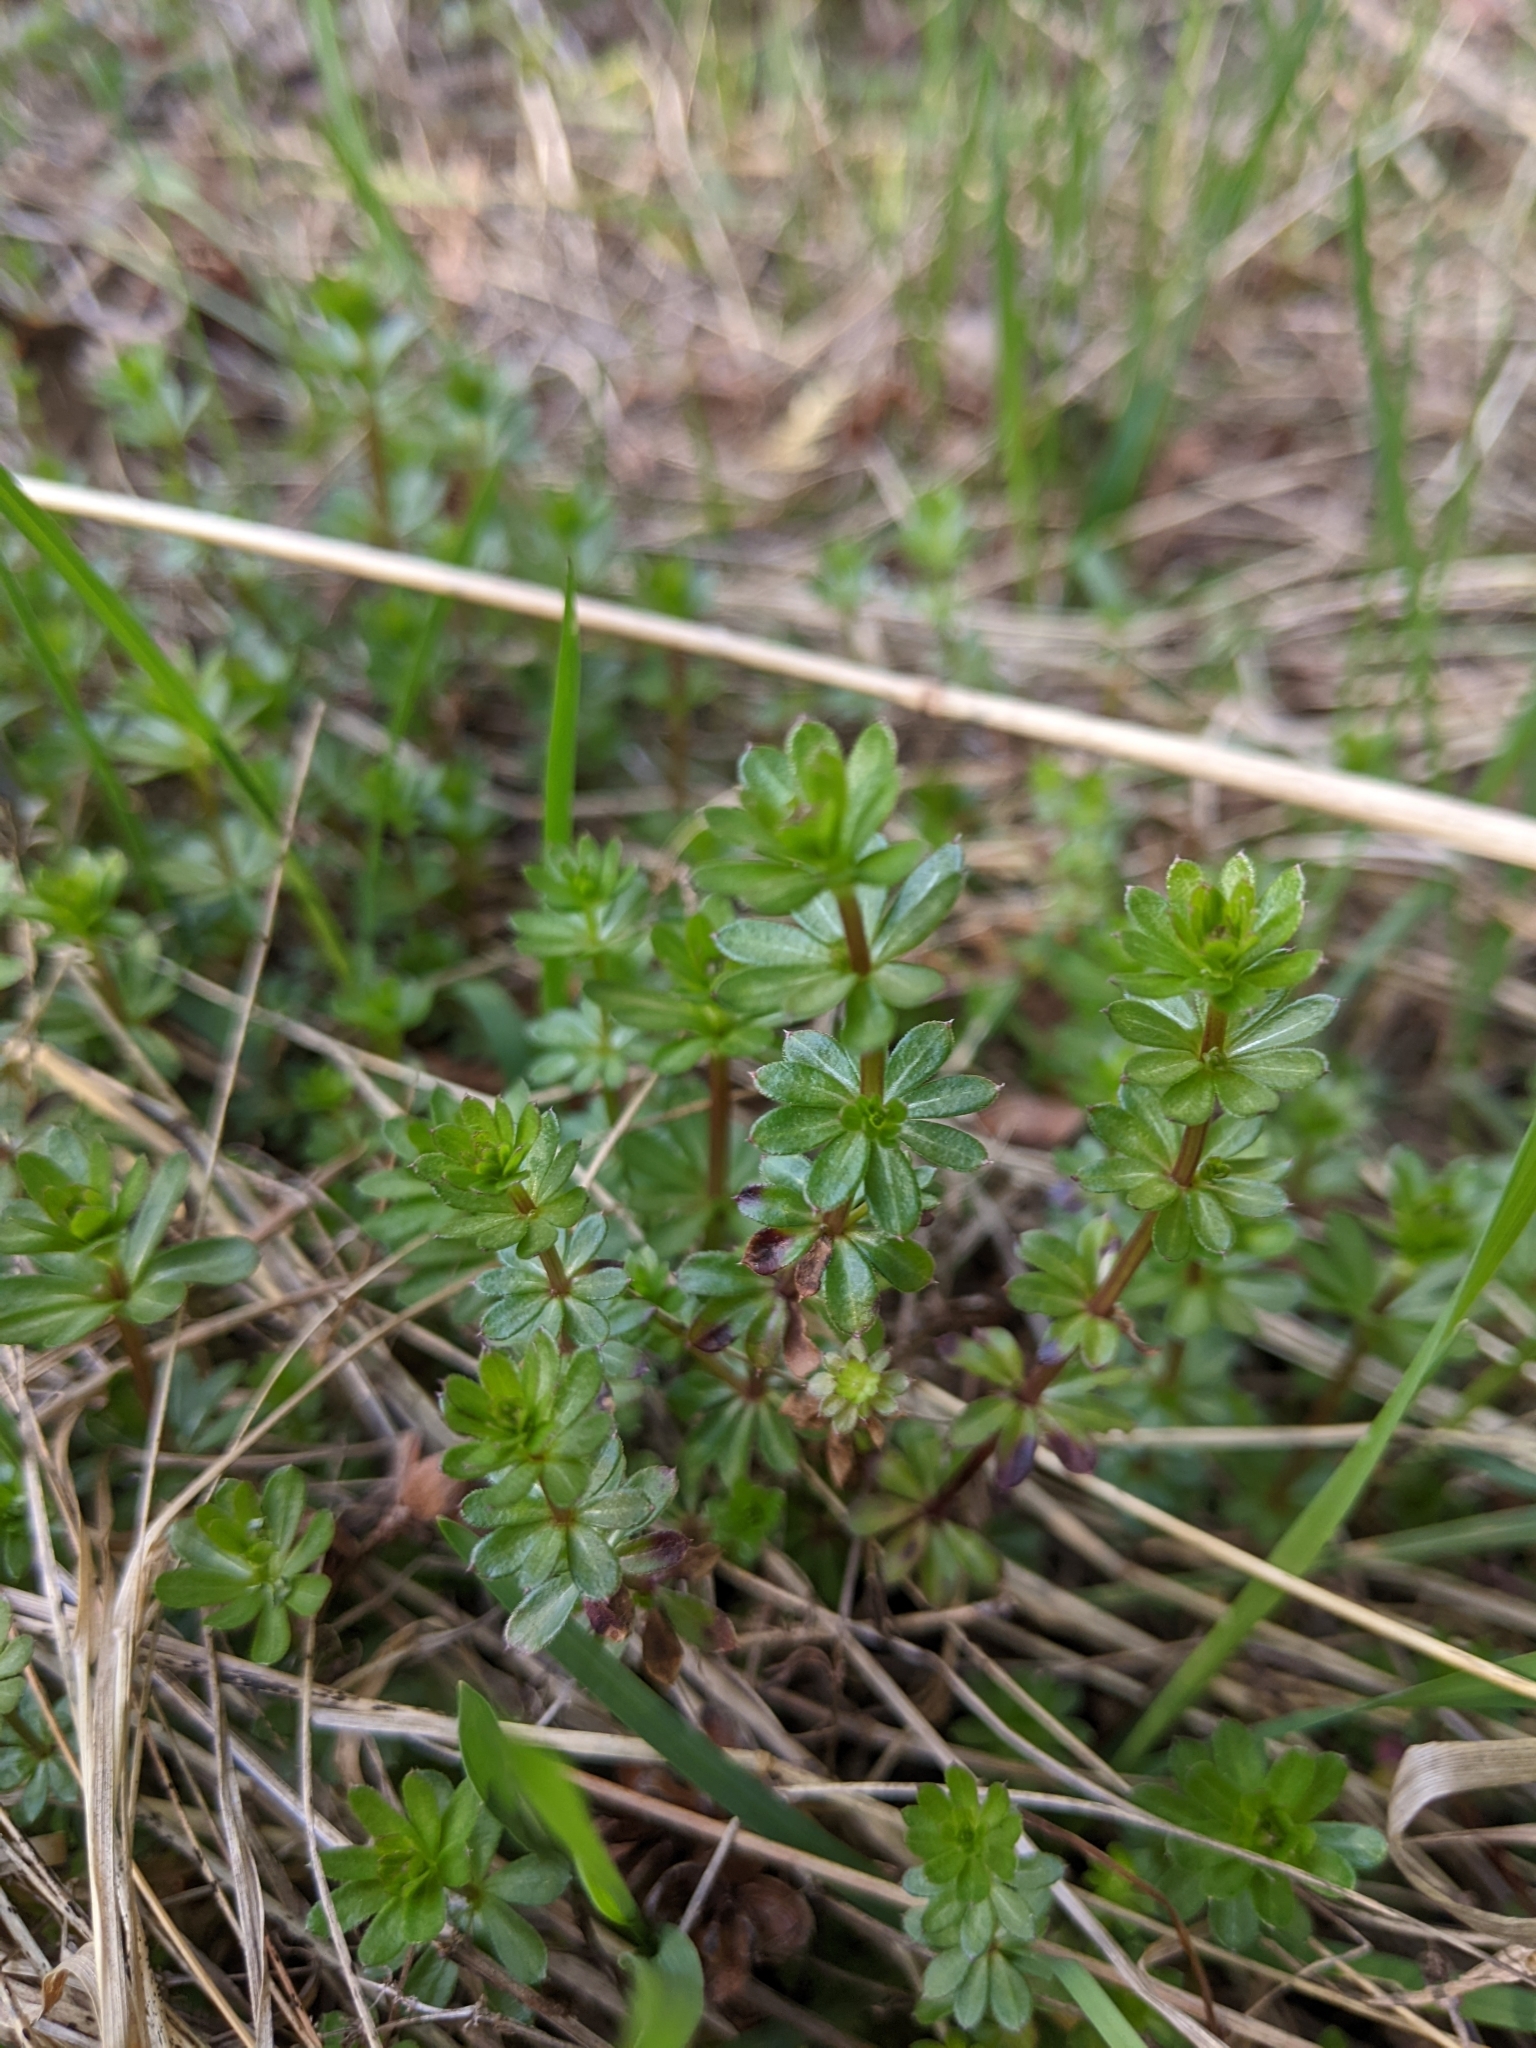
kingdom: Plantae
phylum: Tracheophyta
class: Magnoliopsida
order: Gentianales
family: Rubiaceae
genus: Galium
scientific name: Galium mollugo
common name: Hedge bedstraw
